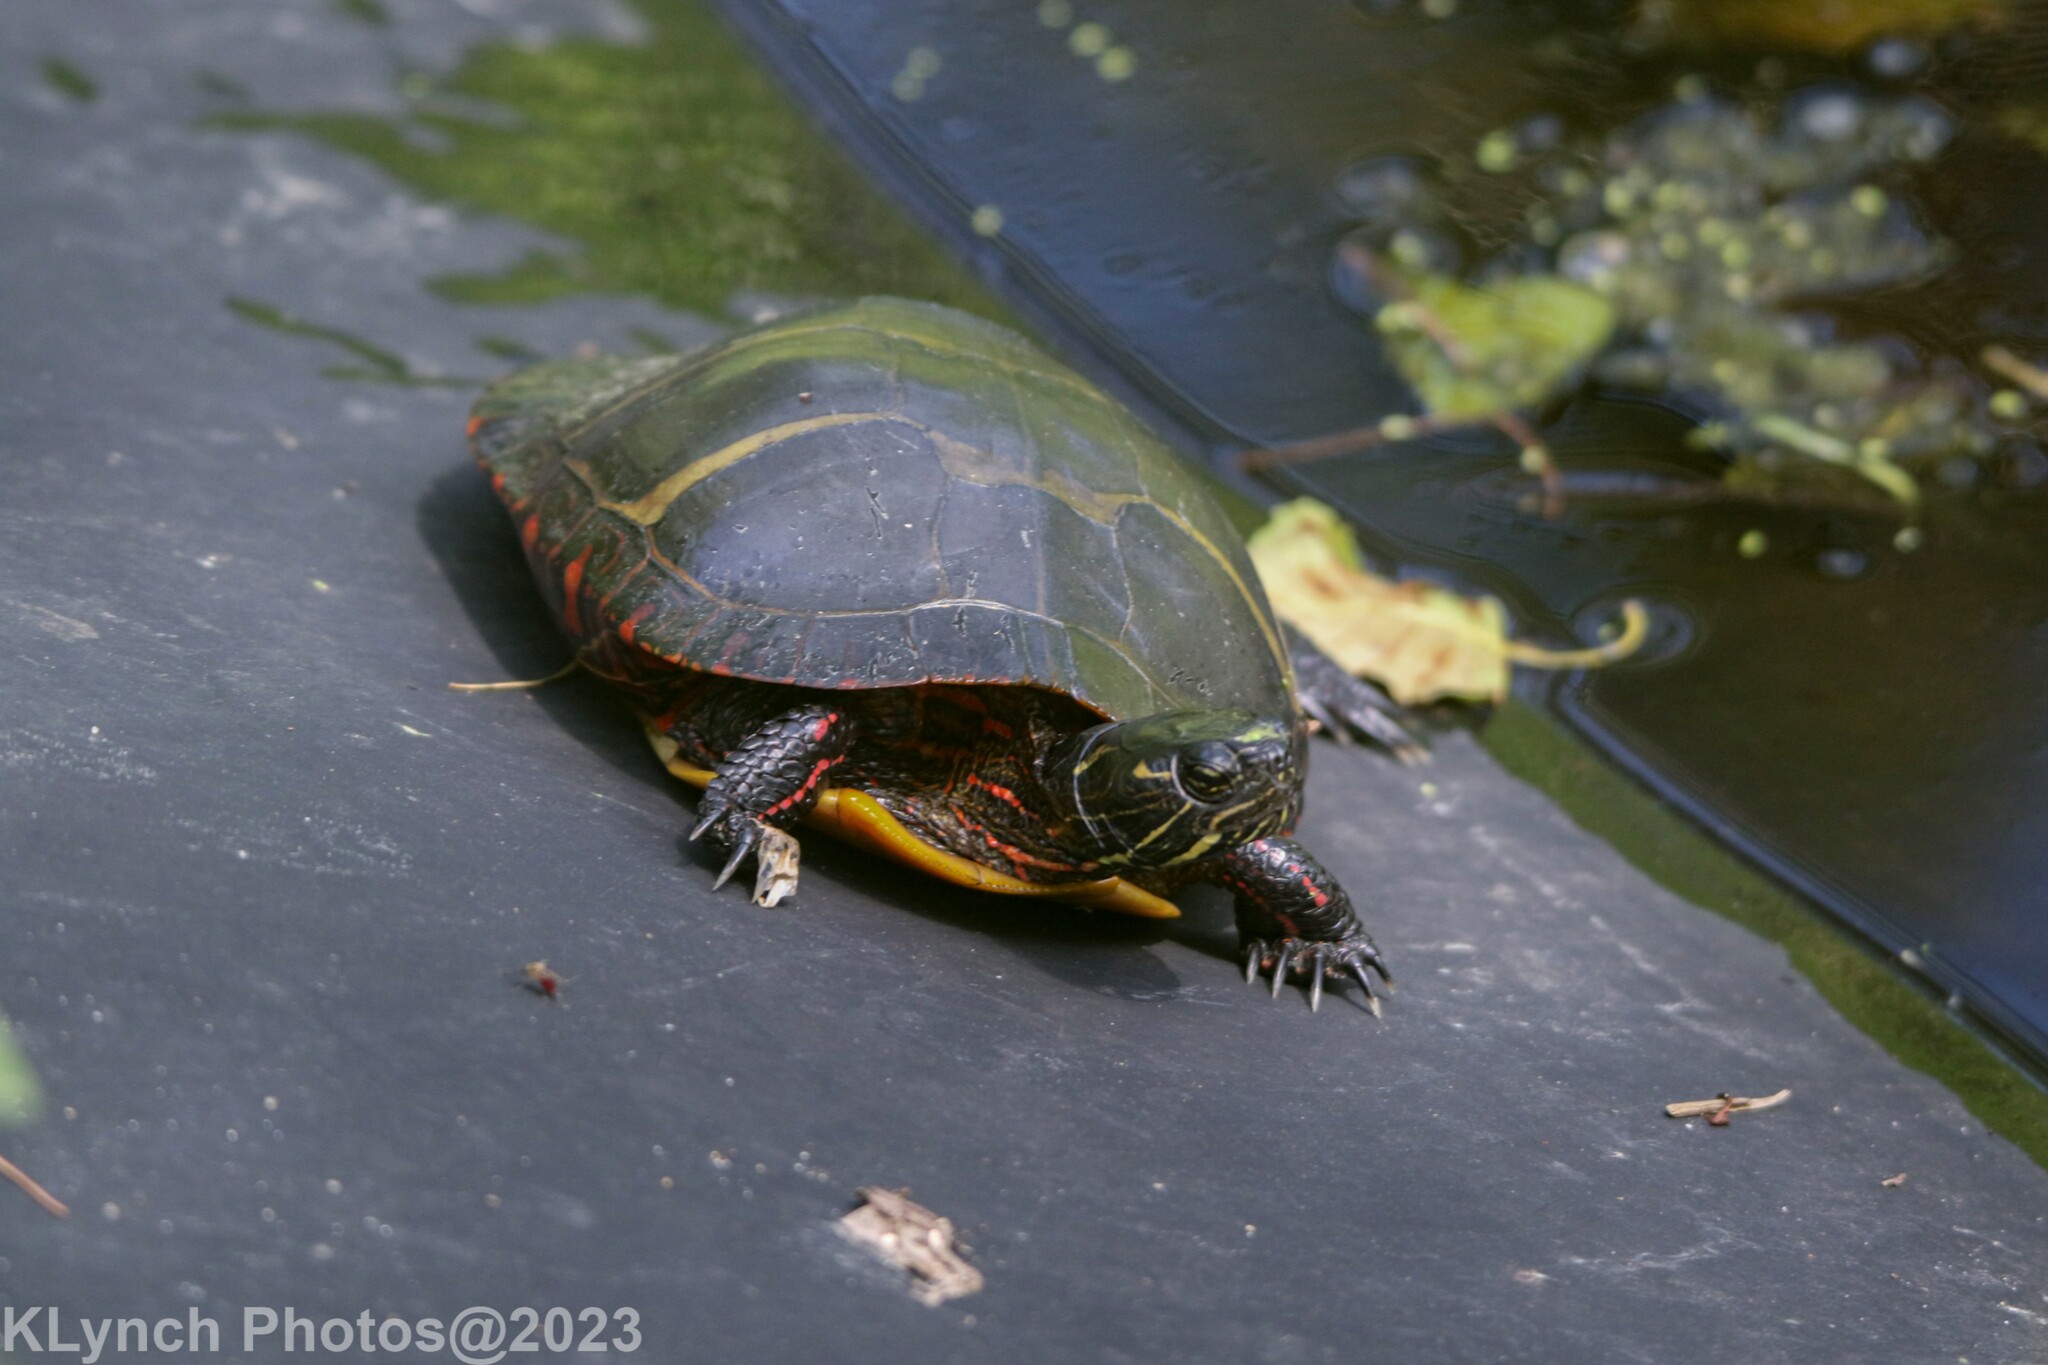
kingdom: Animalia
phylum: Chordata
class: Testudines
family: Emydidae
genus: Chrysemys
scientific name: Chrysemys picta
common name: Painted turtle
